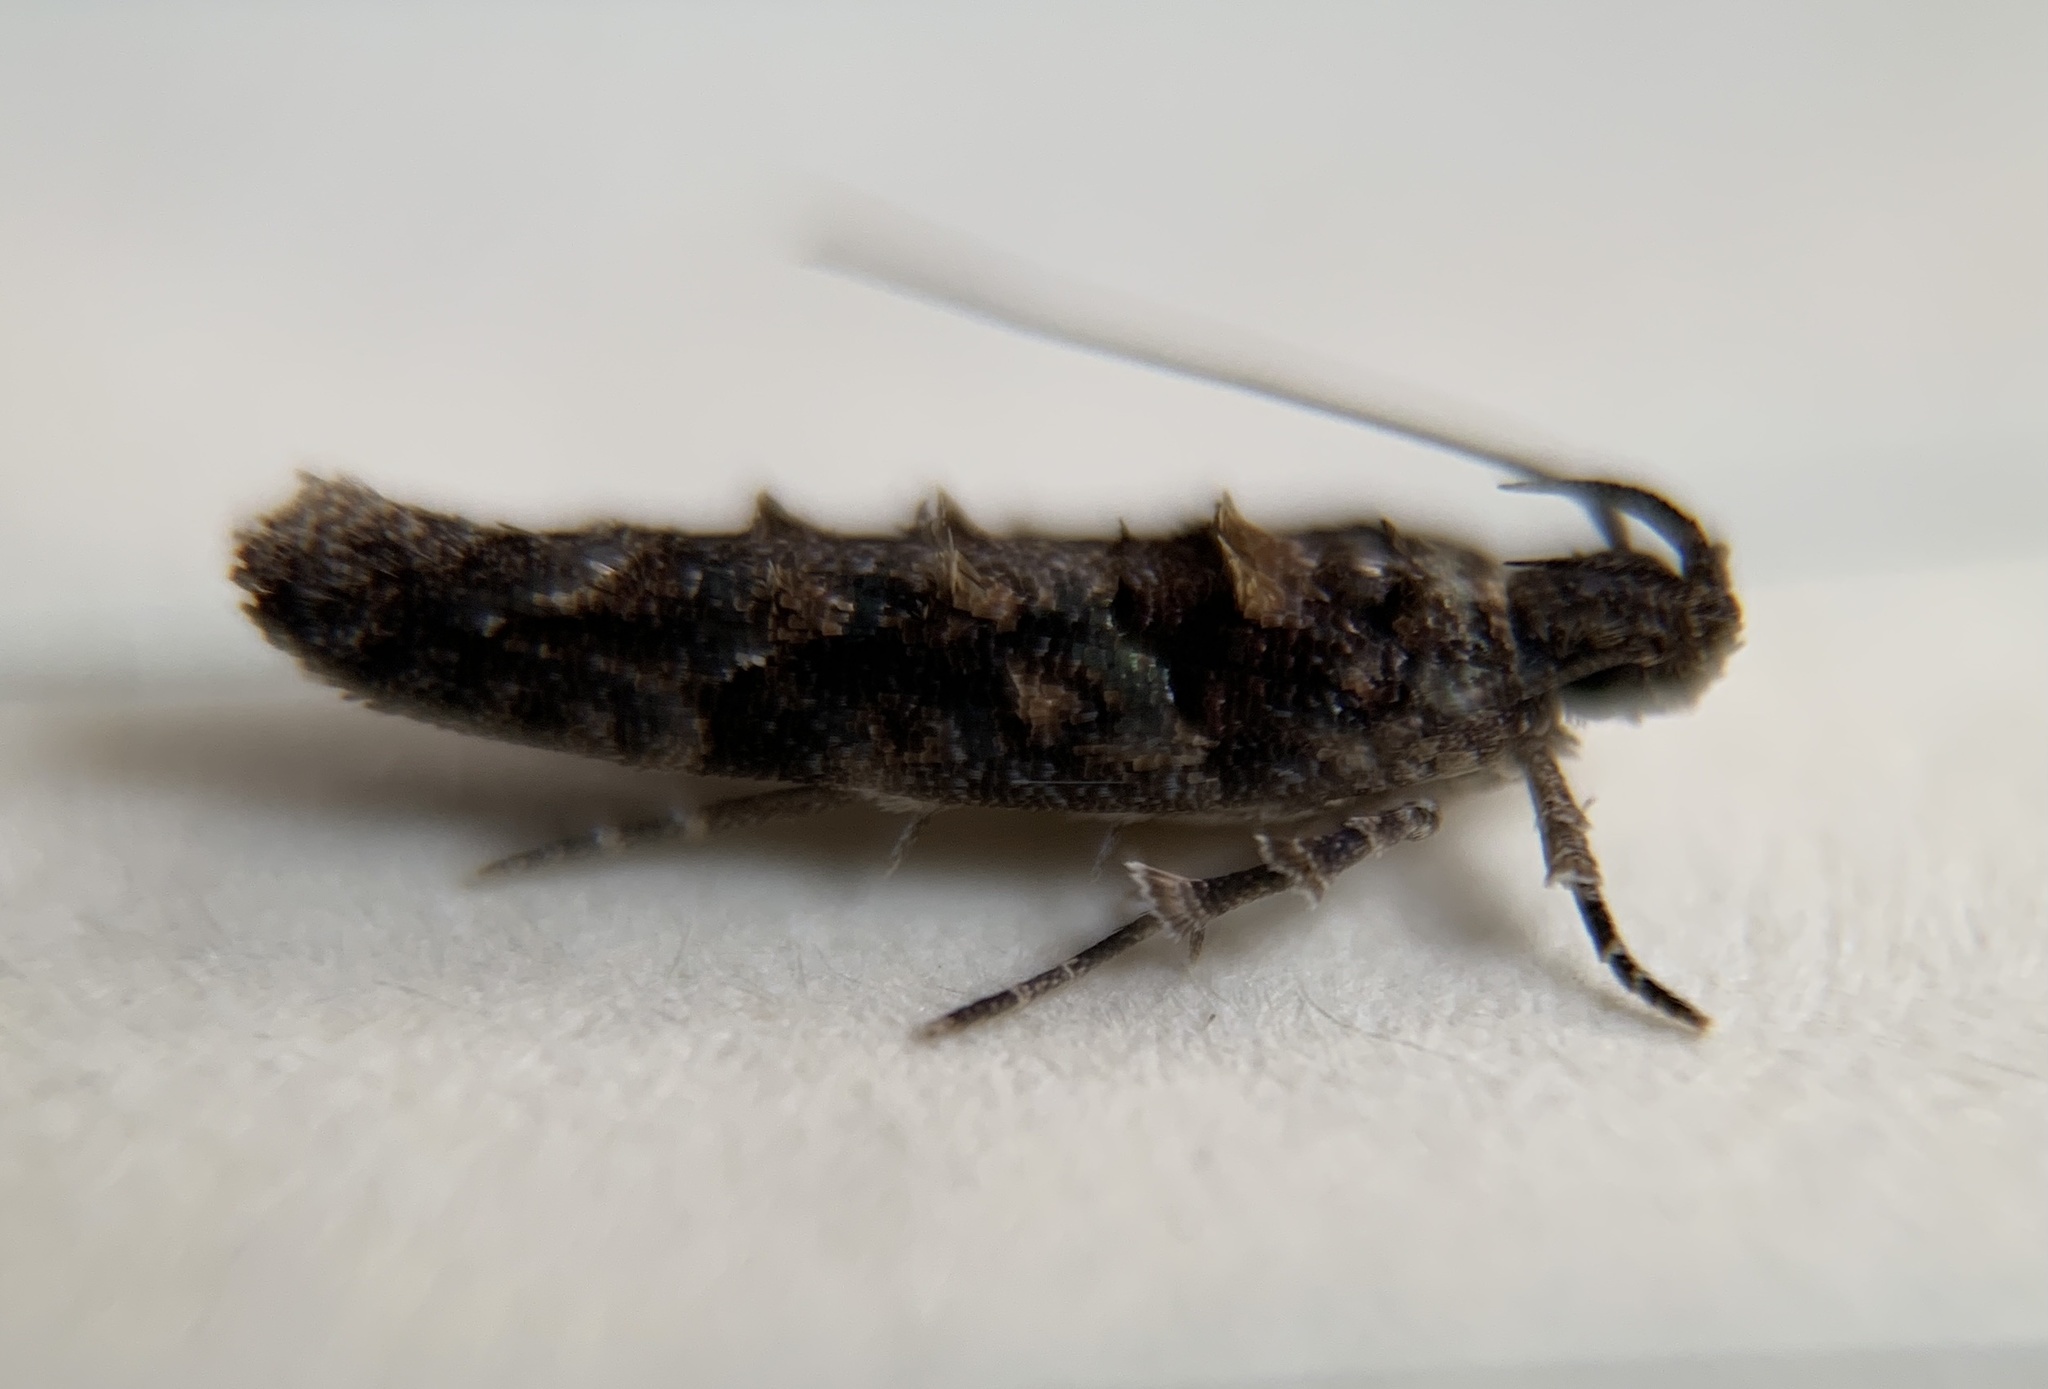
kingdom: Animalia
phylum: Arthropoda
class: Insecta
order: Lepidoptera
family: Gelechiidae
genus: Telphusa
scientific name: Telphusa perspicua
